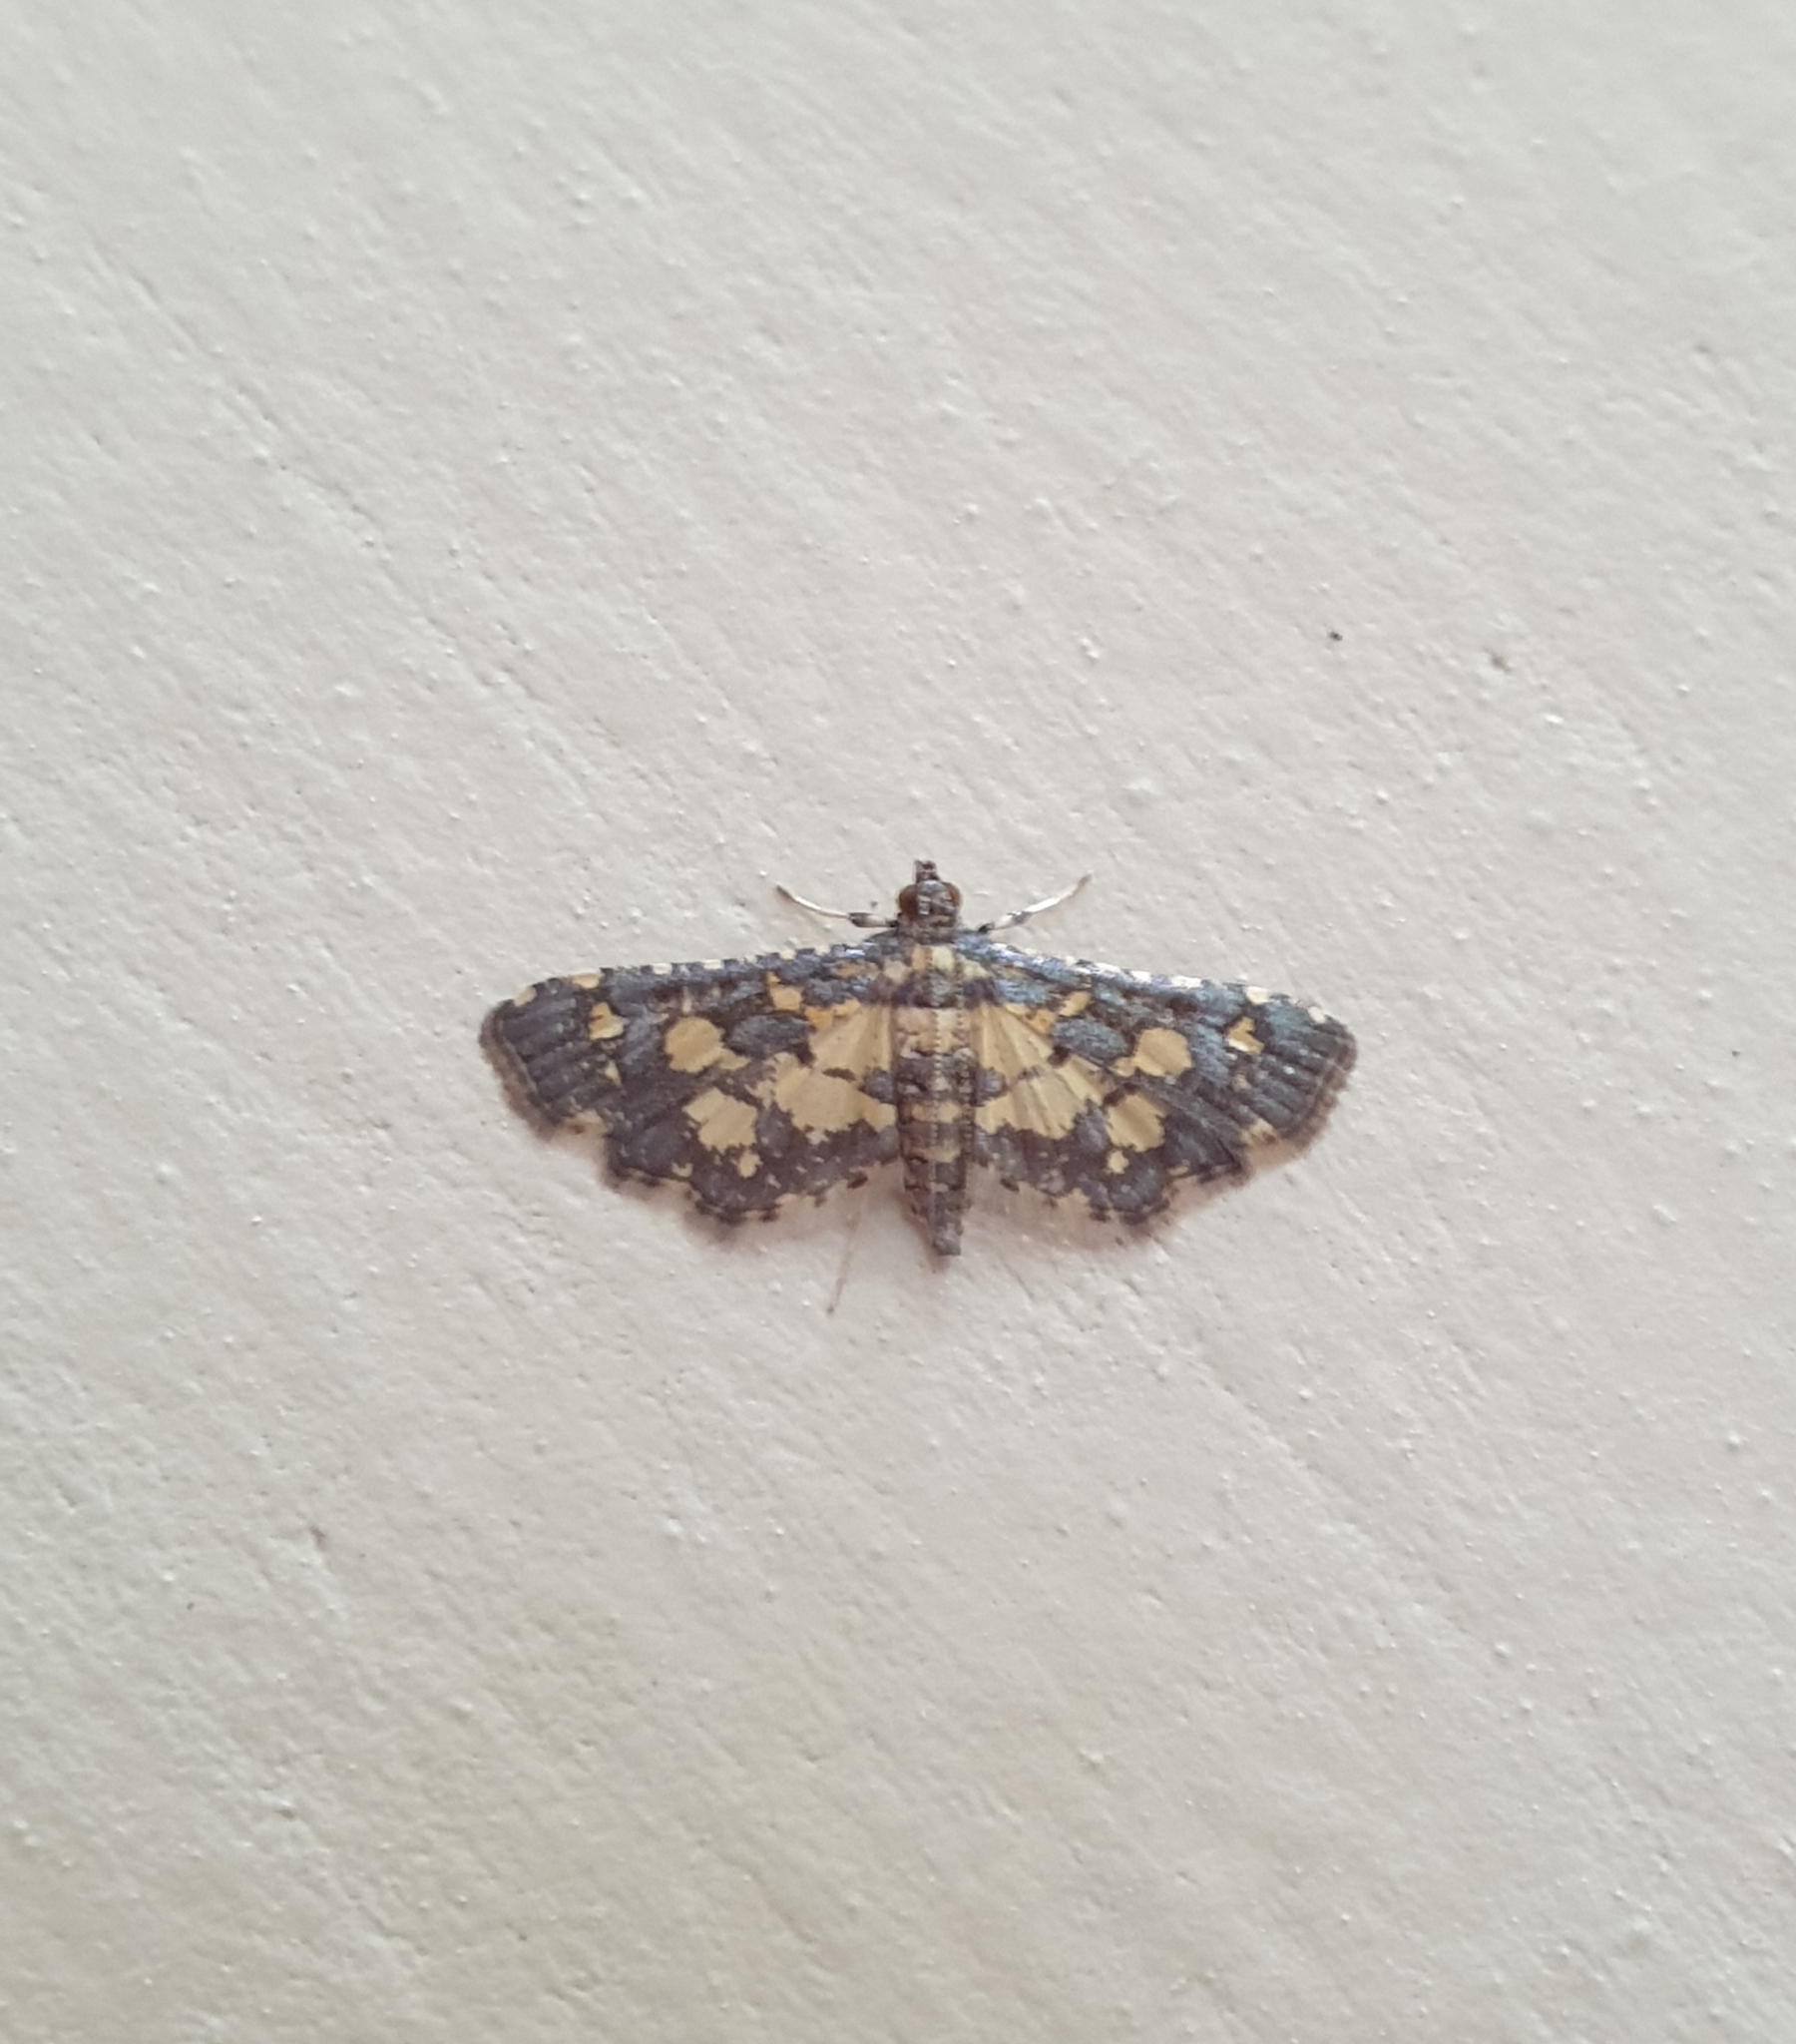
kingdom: Animalia
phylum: Arthropoda
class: Insecta
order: Lepidoptera
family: Crambidae
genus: Eurrhyparodes
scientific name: Eurrhyparodes bracteolalis
